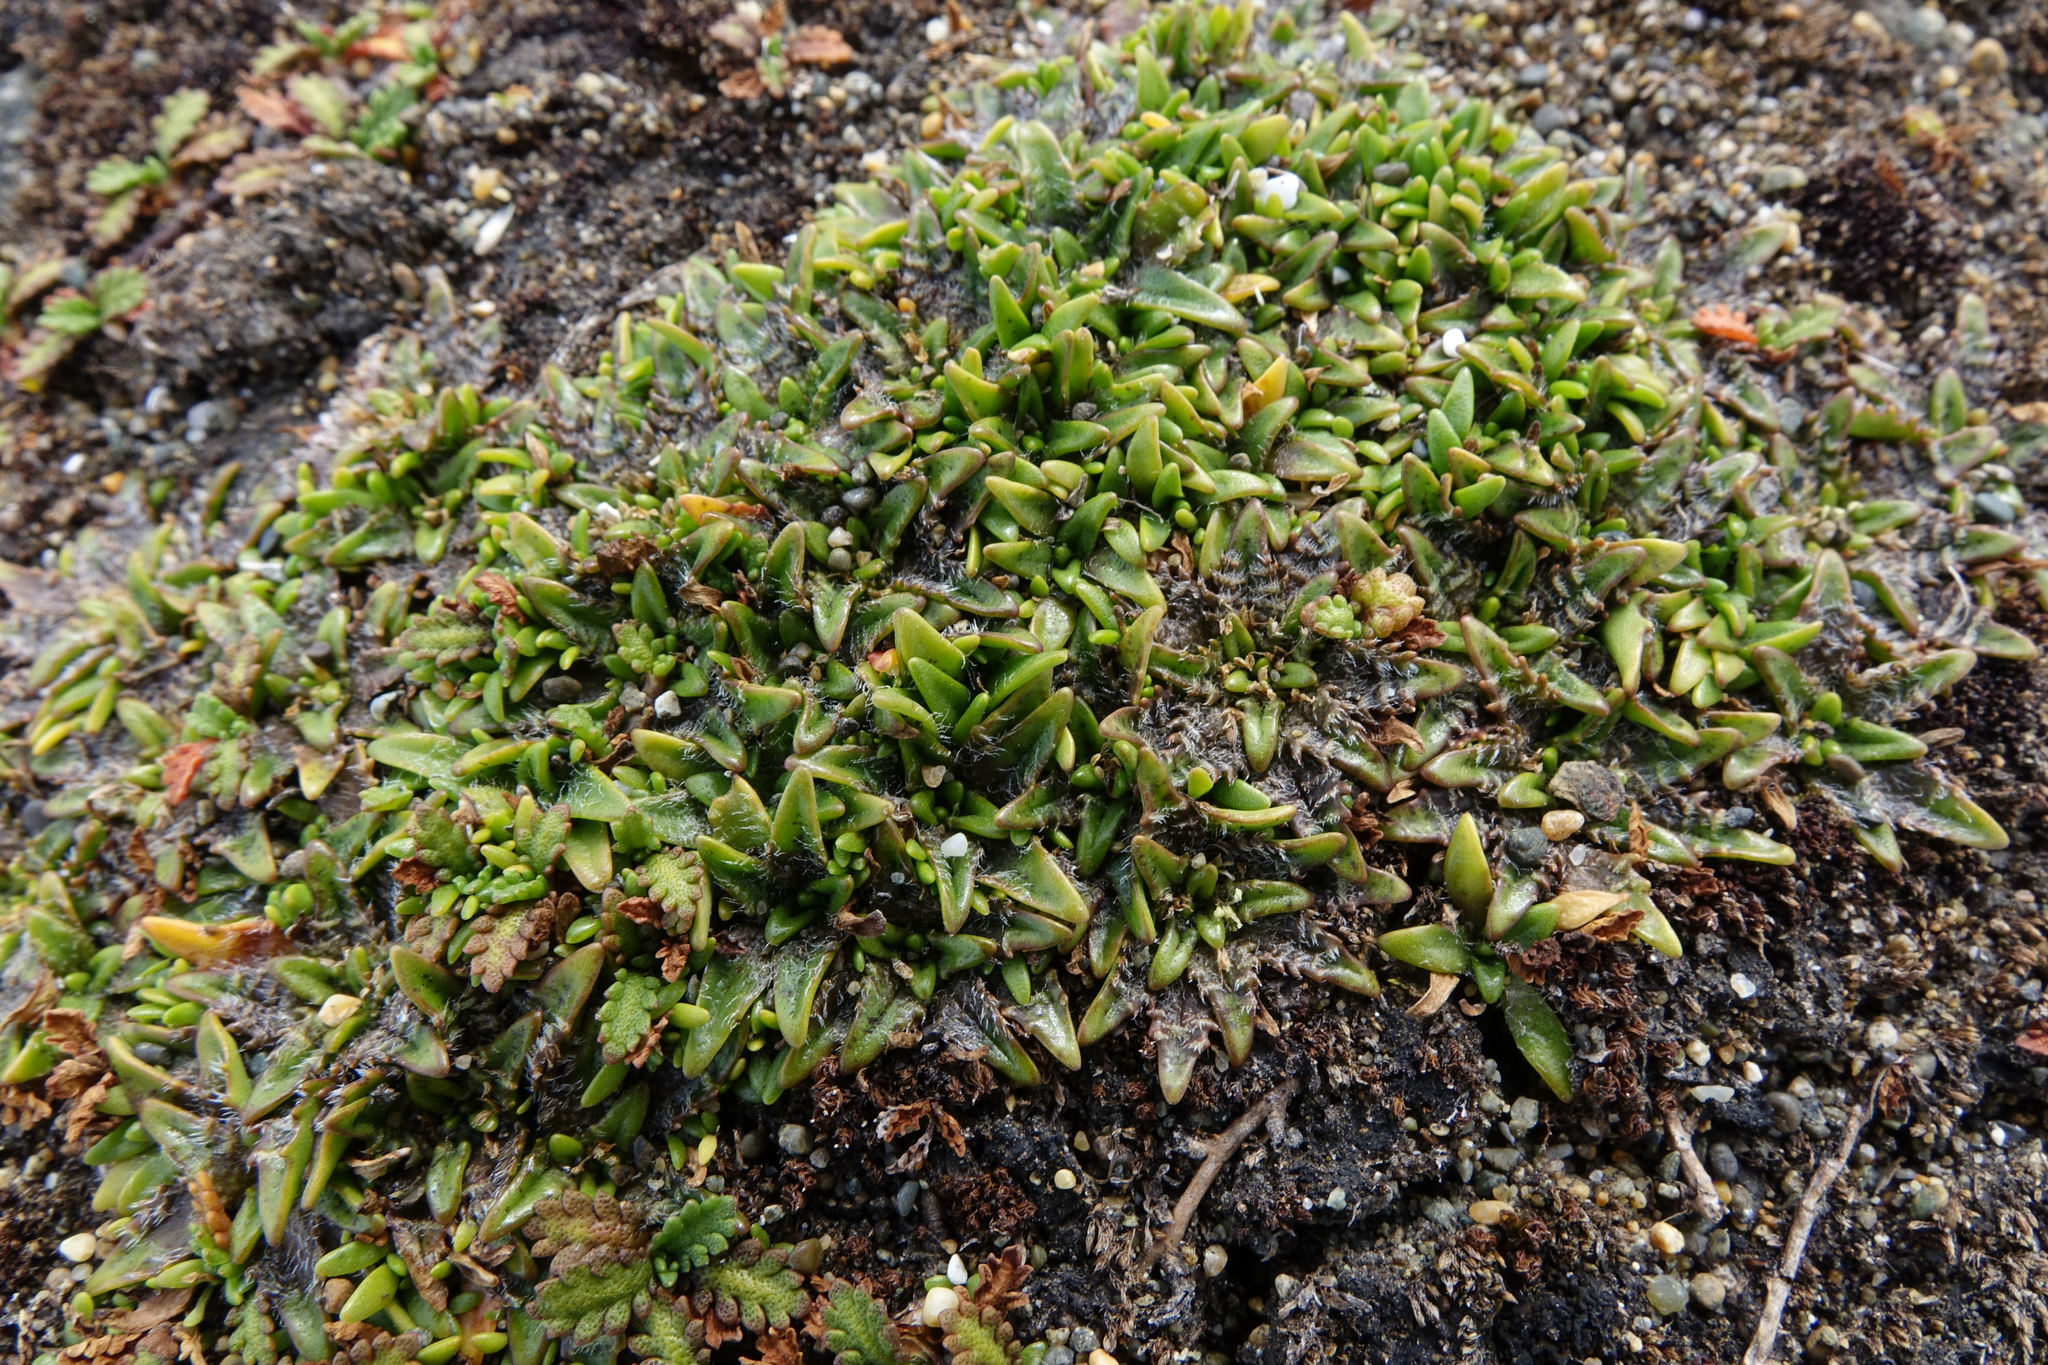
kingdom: Plantae
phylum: Tracheophyta
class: Magnoliopsida
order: Lamiales
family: Plantaginaceae
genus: Plantago
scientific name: Plantago triandra
